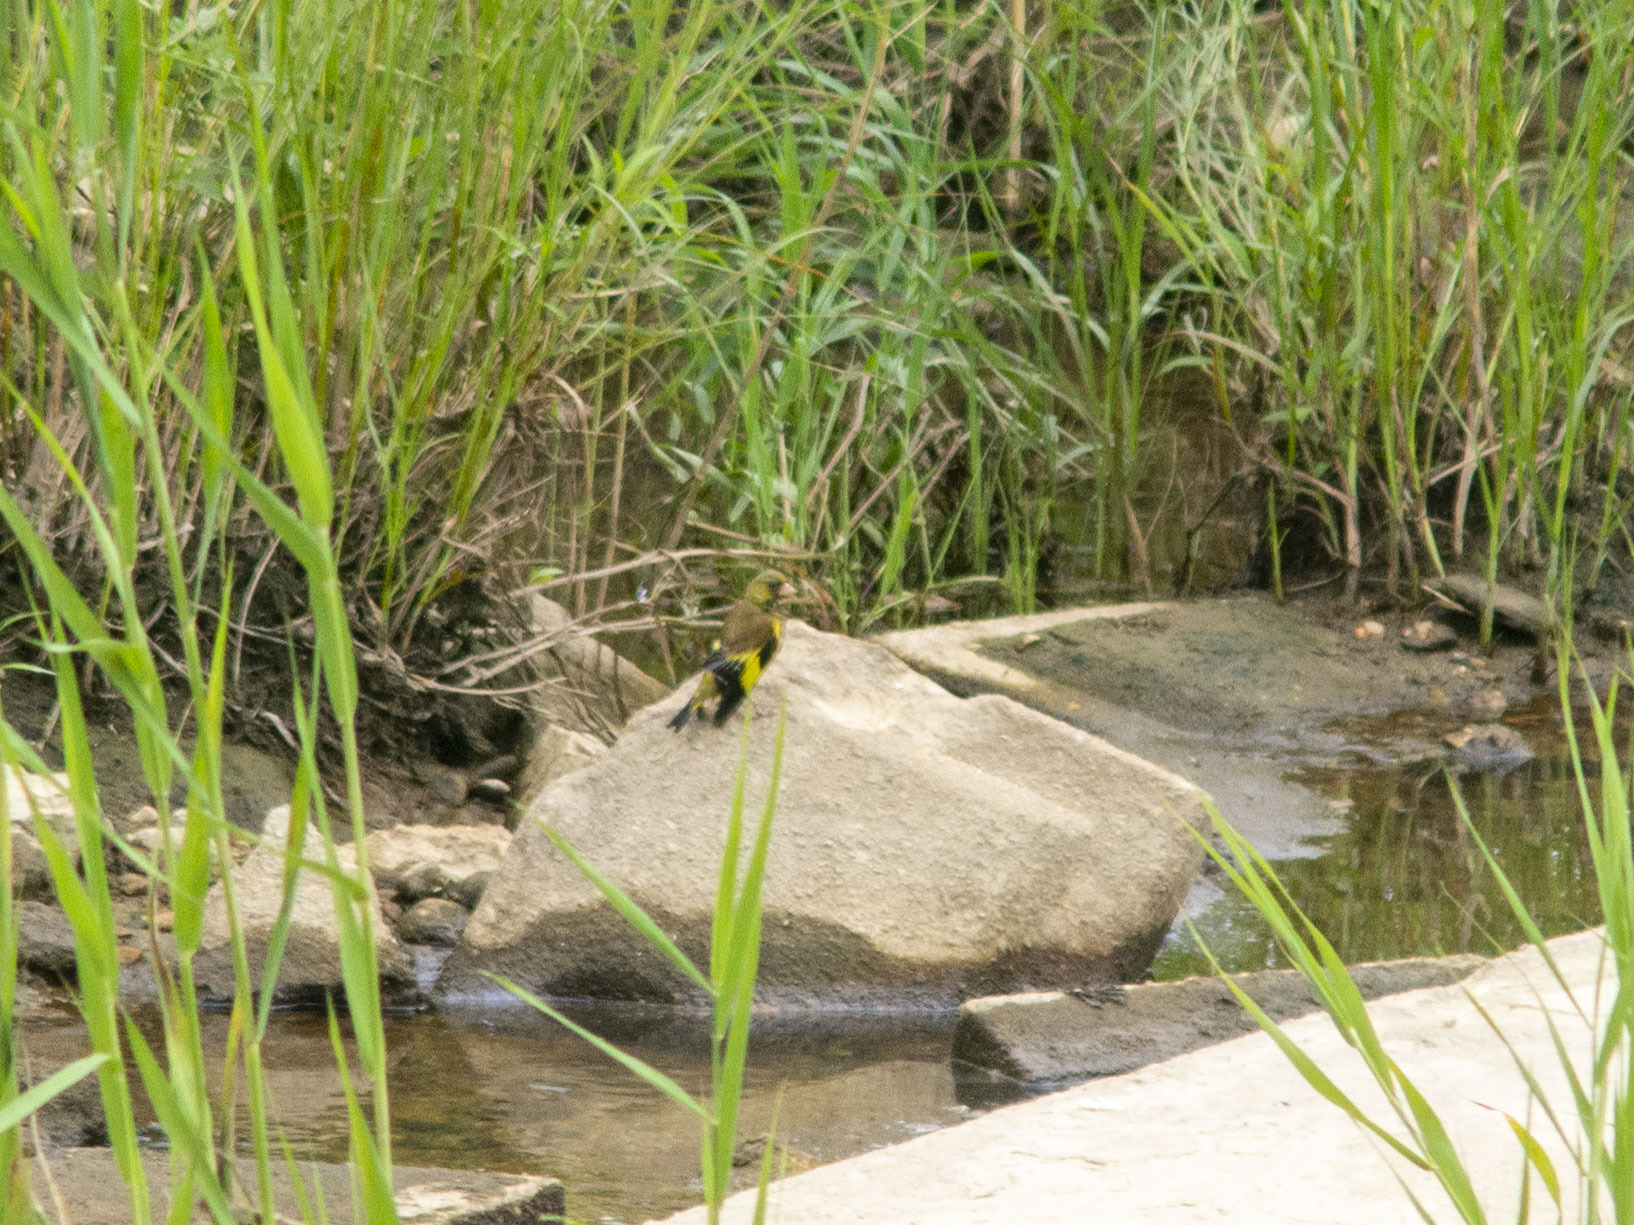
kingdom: Plantae
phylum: Tracheophyta
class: Liliopsida
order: Poales
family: Poaceae
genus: Chloris
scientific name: Chloris sinica
